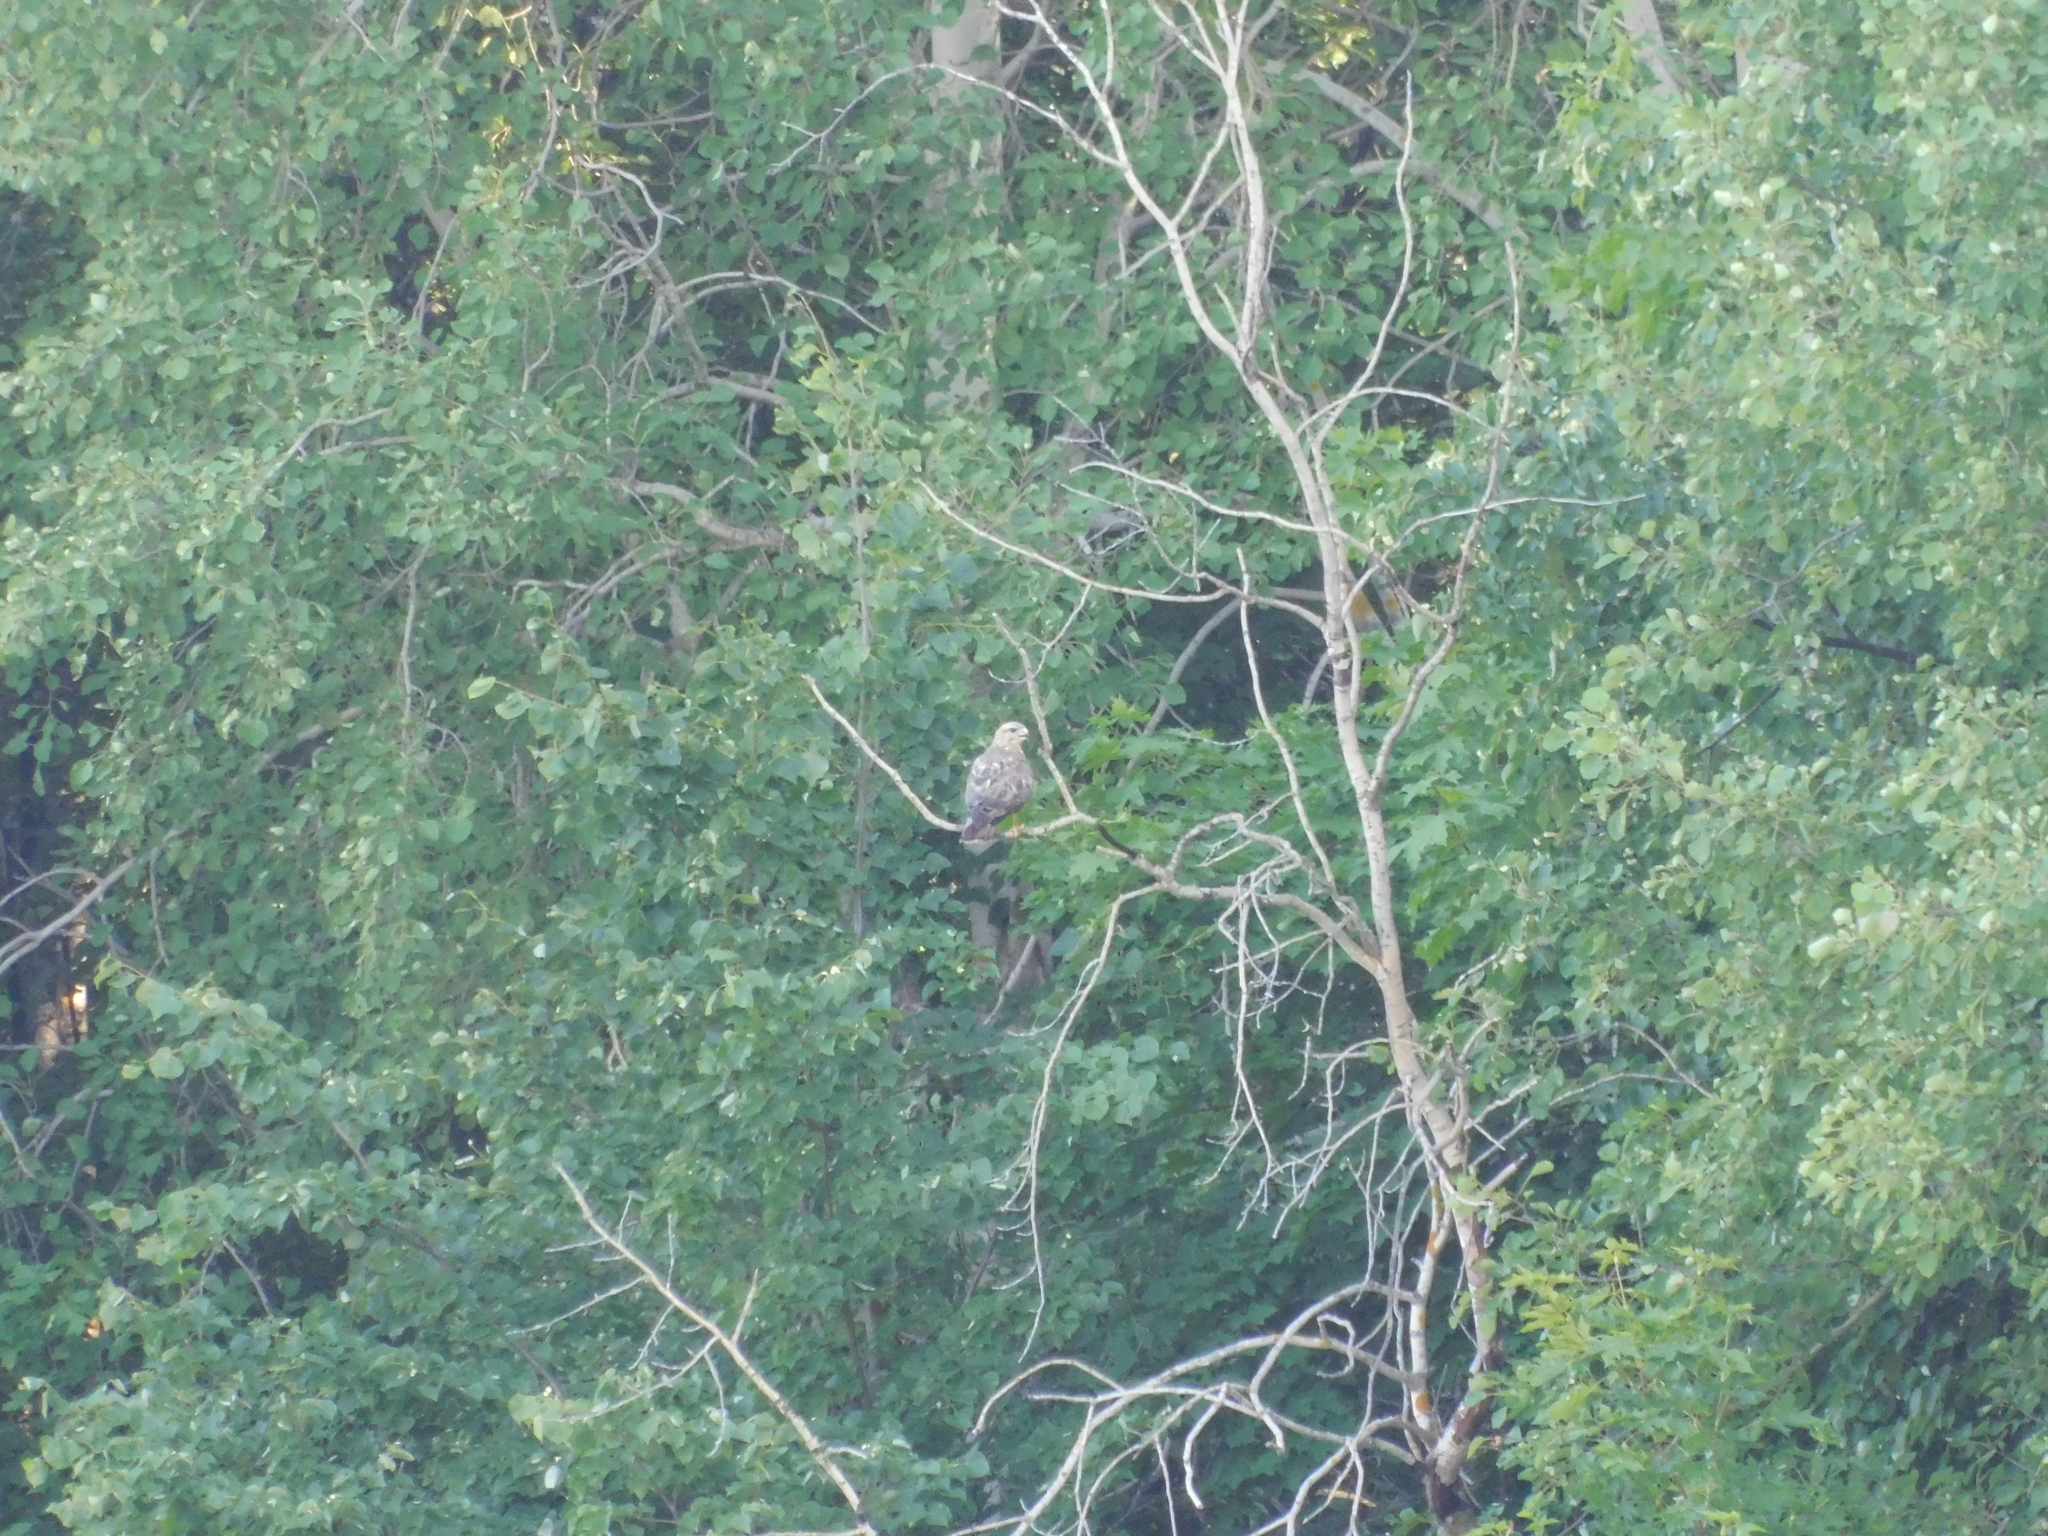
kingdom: Animalia
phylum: Chordata
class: Aves
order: Accipitriformes
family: Accipitridae
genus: Buteo
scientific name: Buteo buteo
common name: Common buzzard
